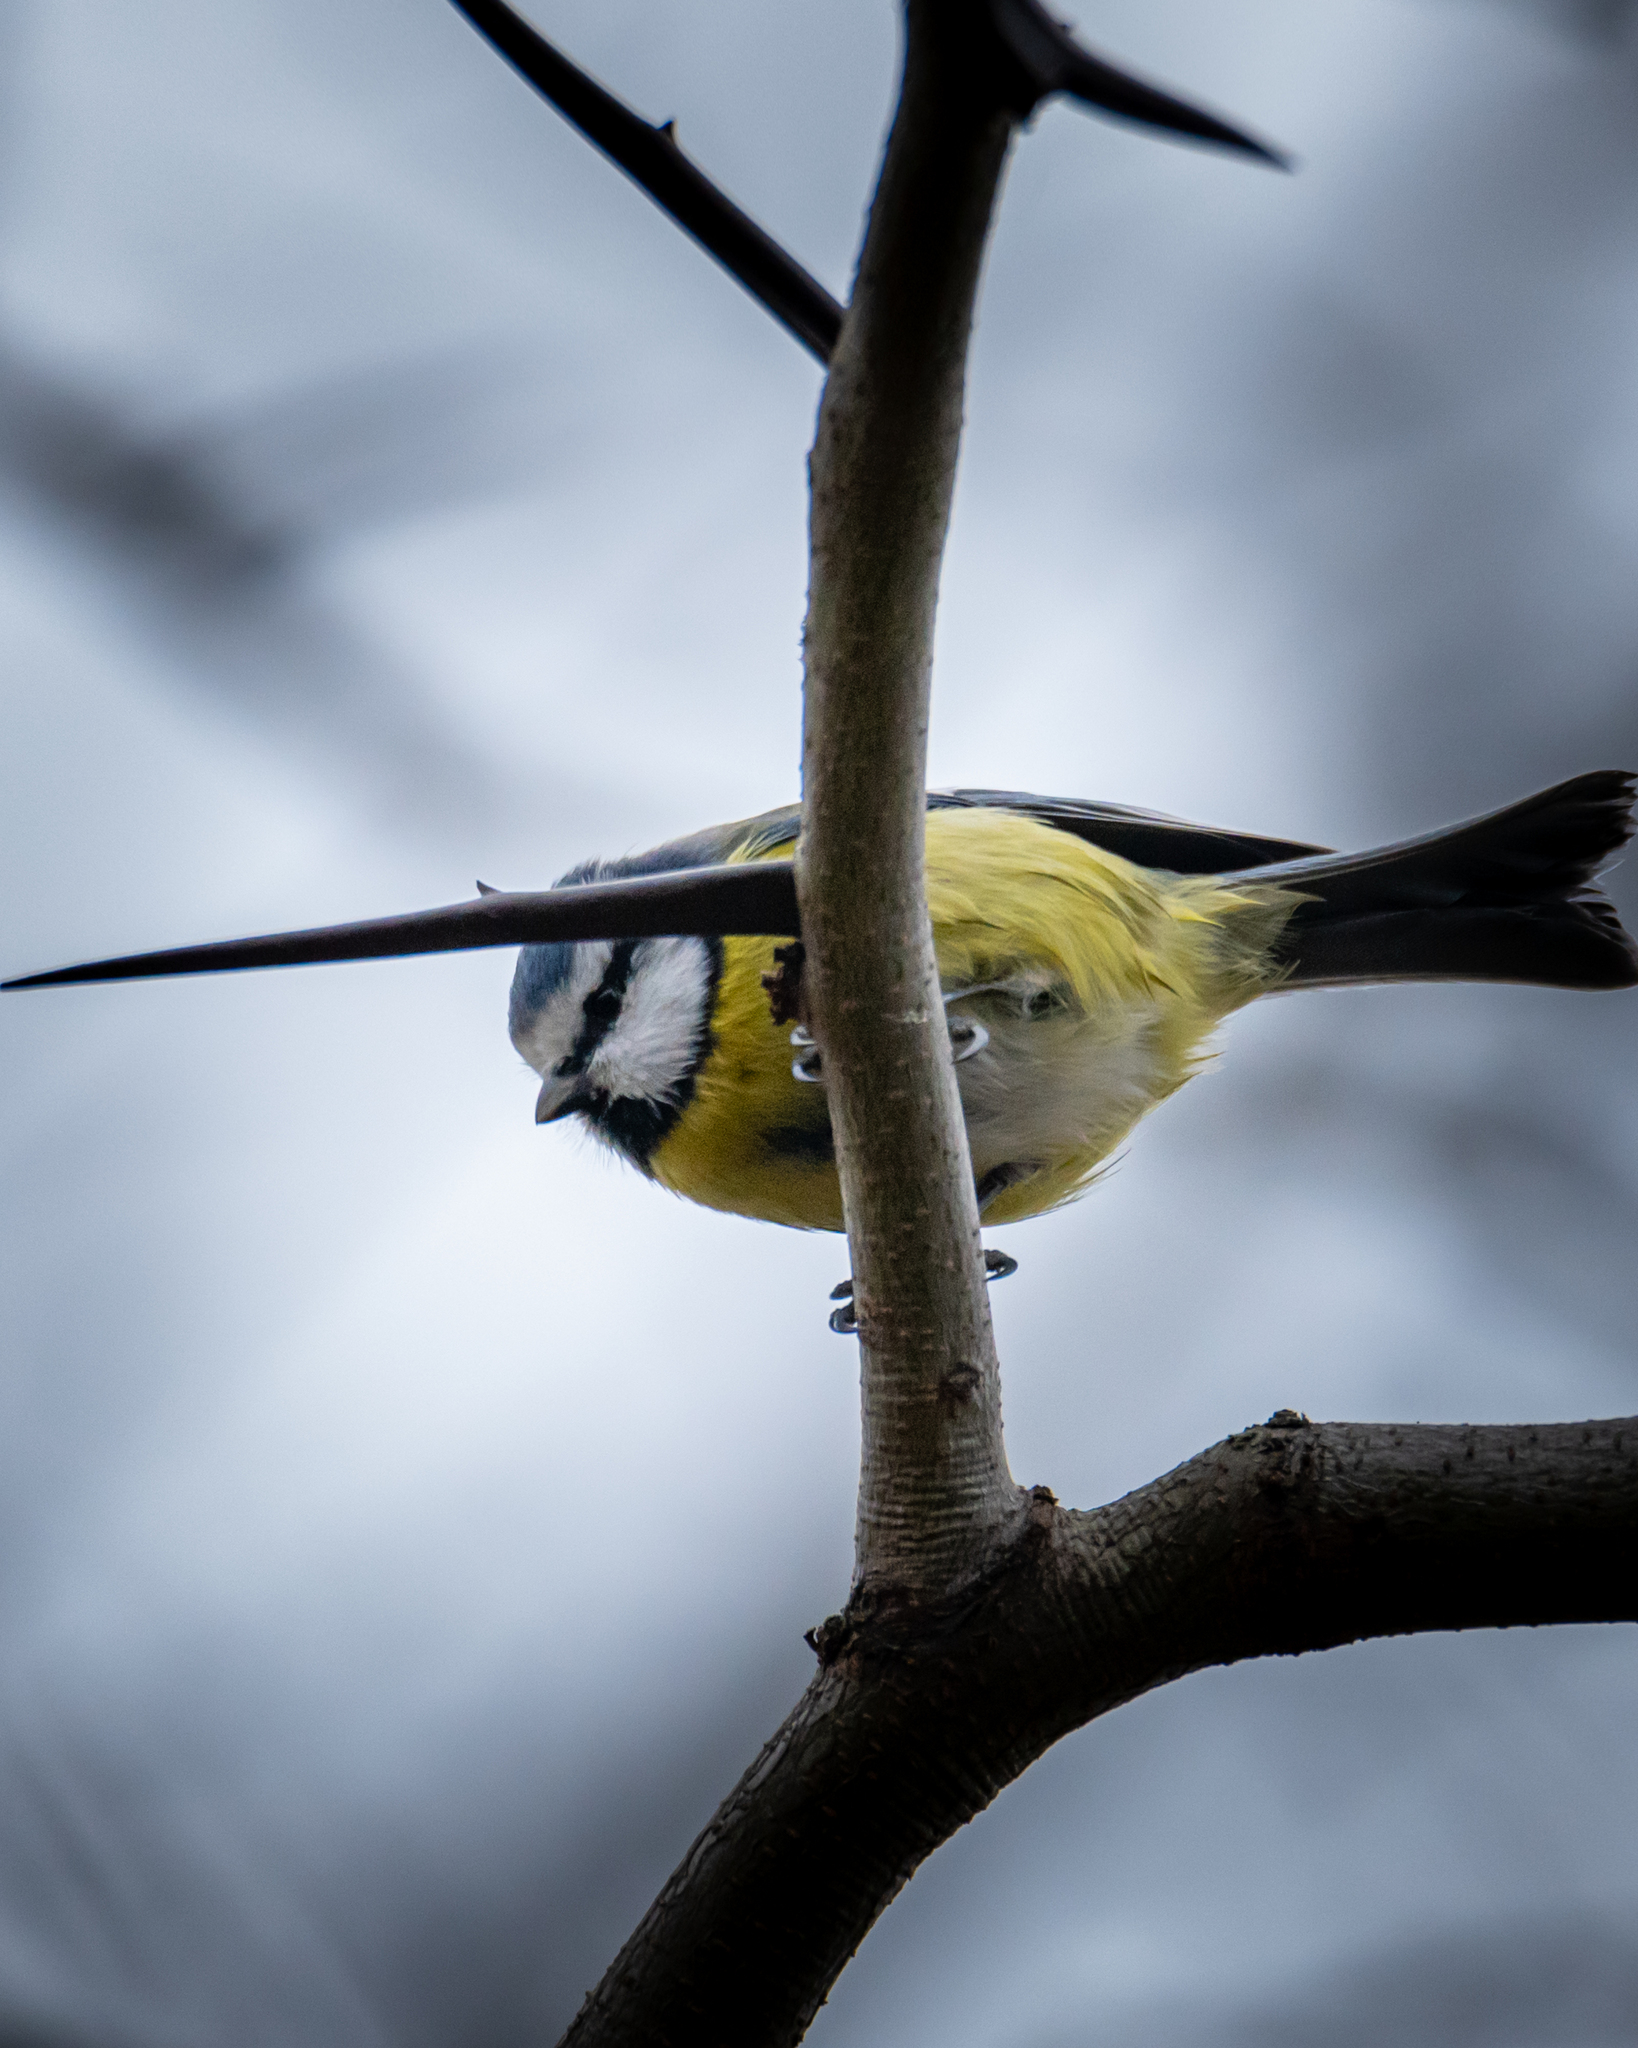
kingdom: Animalia
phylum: Chordata
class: Aves
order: Passeriformes
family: Paridae
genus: Cyanistes
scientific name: Cyanistes caeruleus
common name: Eurasian blue tit
